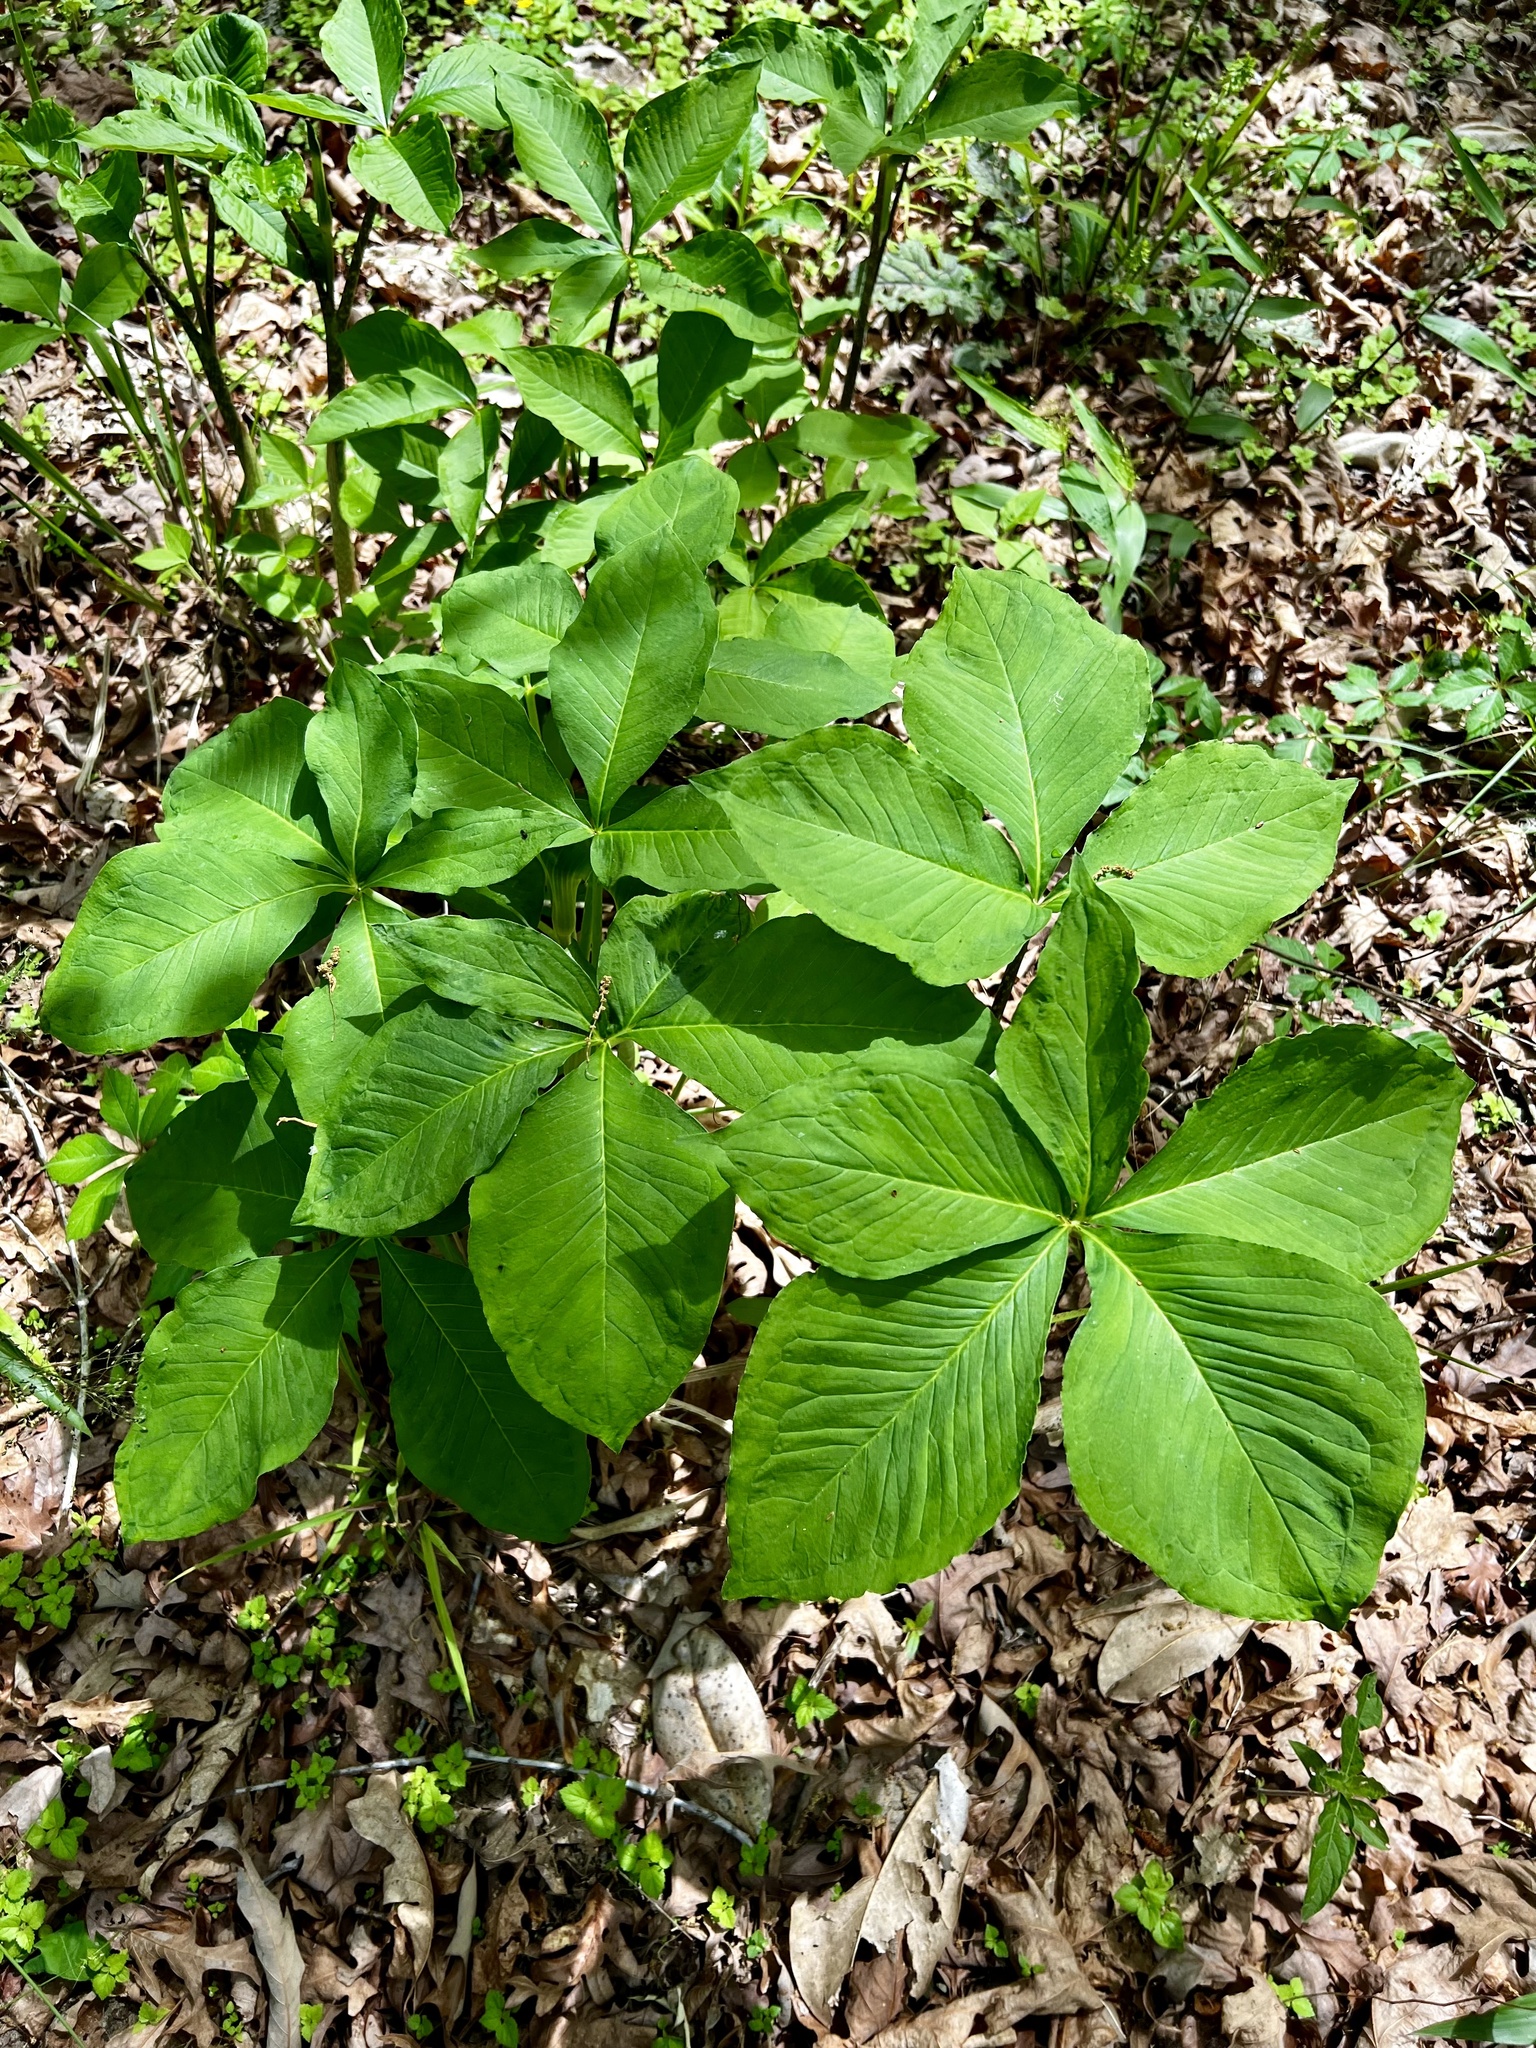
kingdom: Plantae
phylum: Tracheophyta
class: Liliopsida
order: Alismatales
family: Araceae
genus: Arisaema
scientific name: Arisaema quinatum
